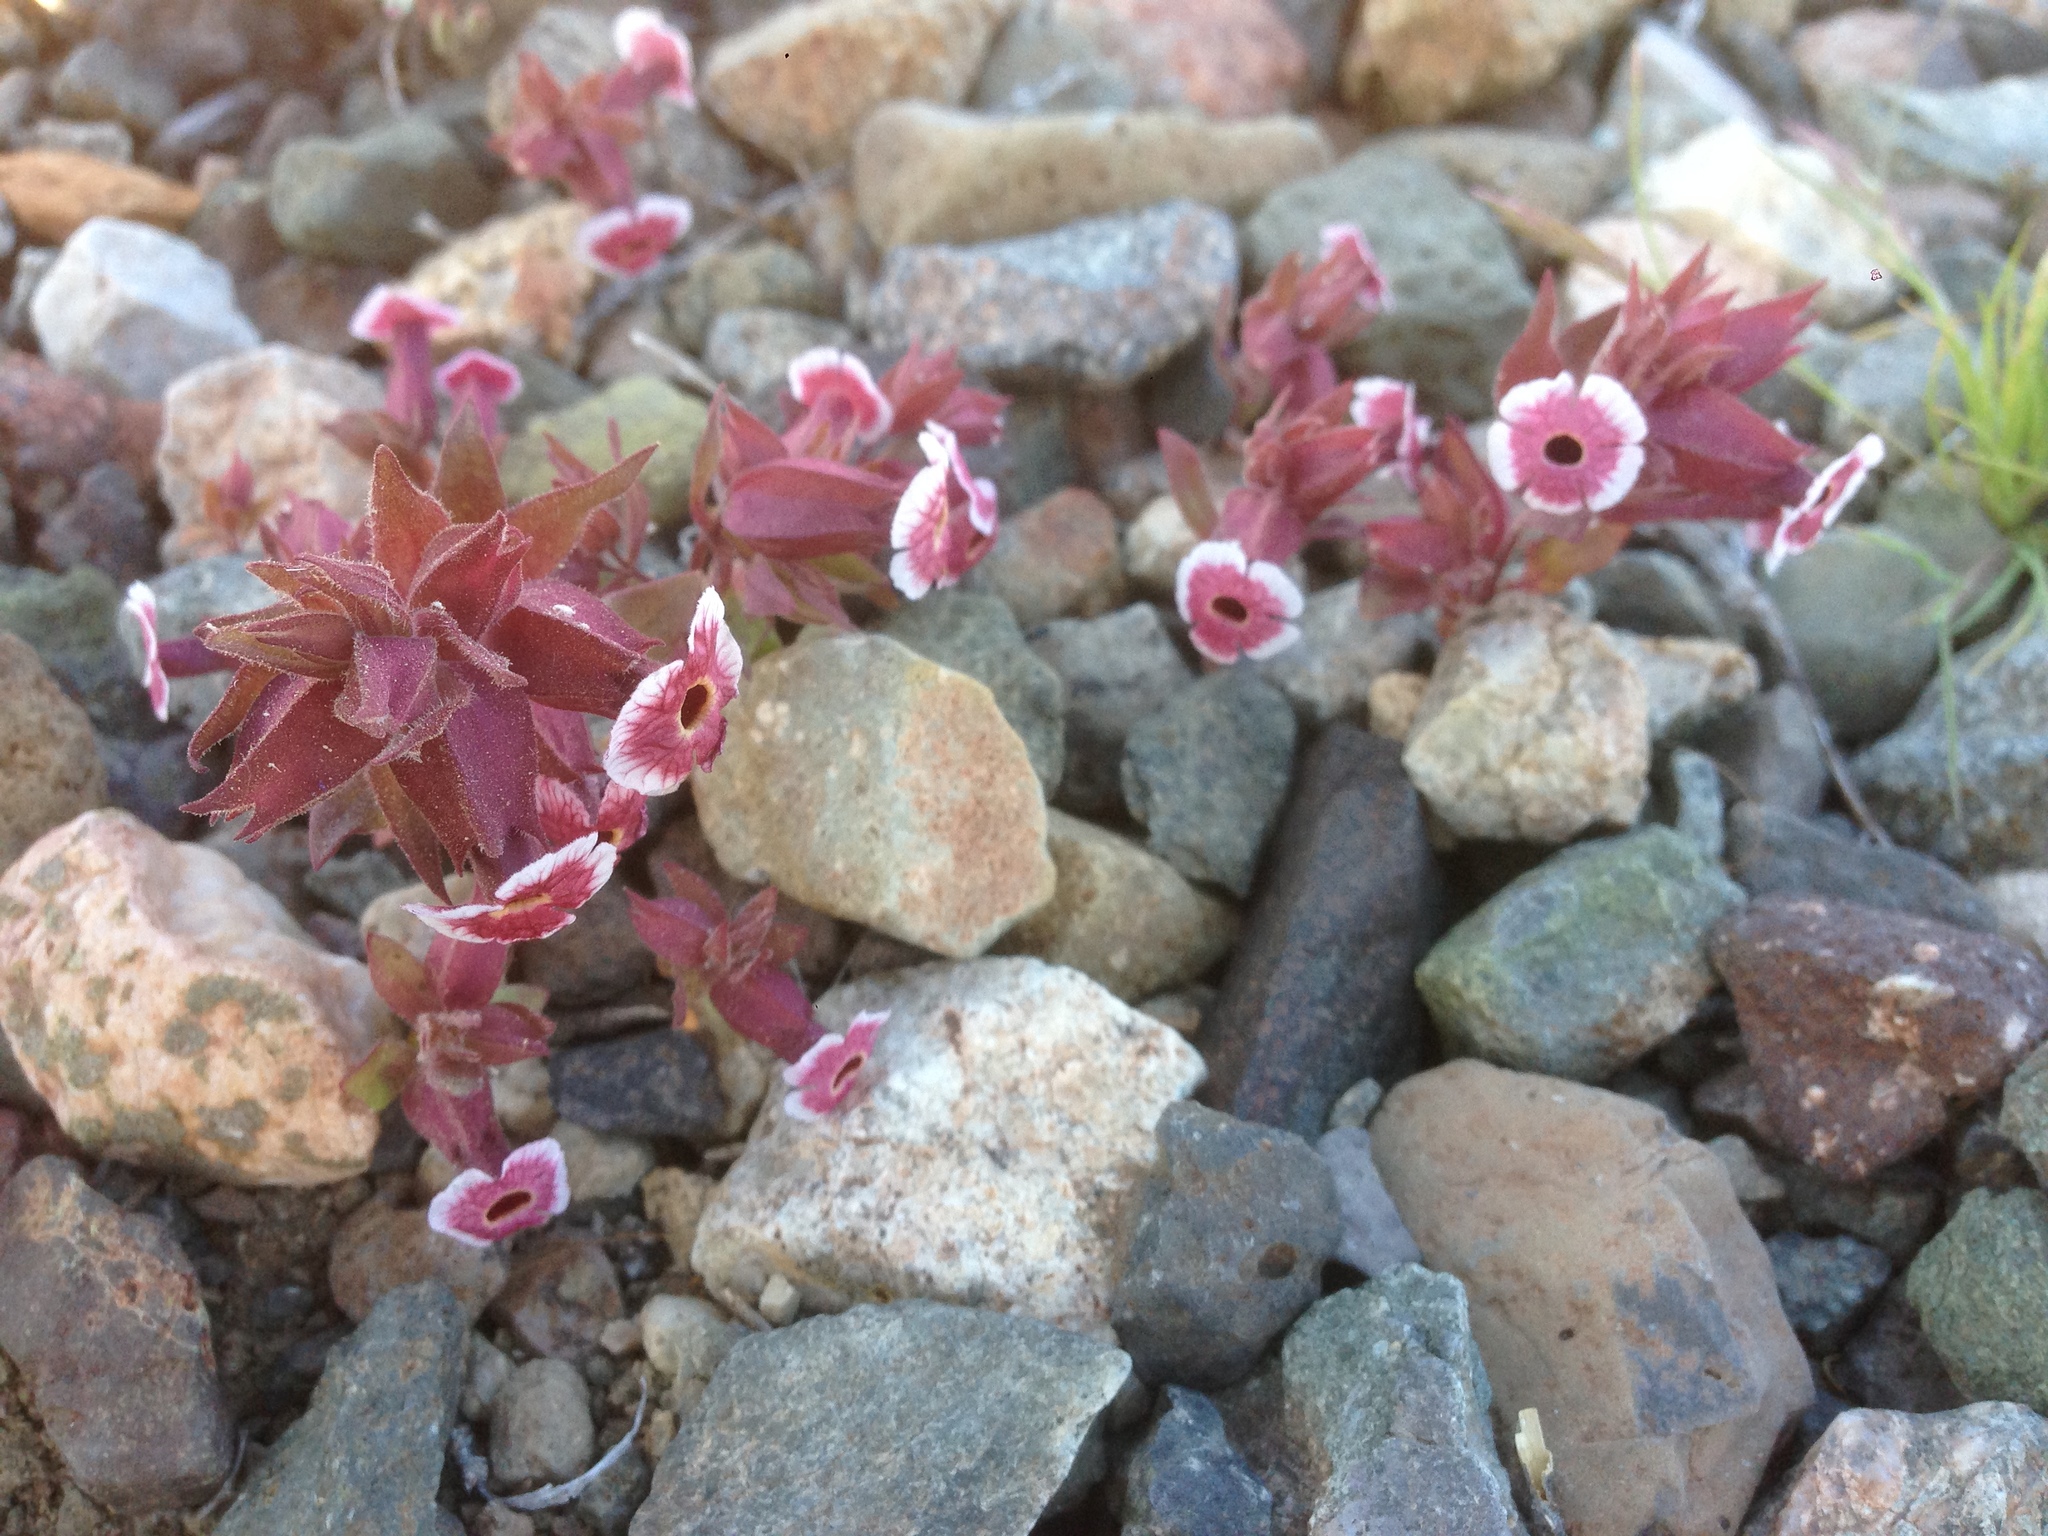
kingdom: Plantae
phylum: Tracheophyta
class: Magnoliopsida
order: Lamiales
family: Phrymaceae
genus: Diplacus
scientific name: Diplacus mohavensis
